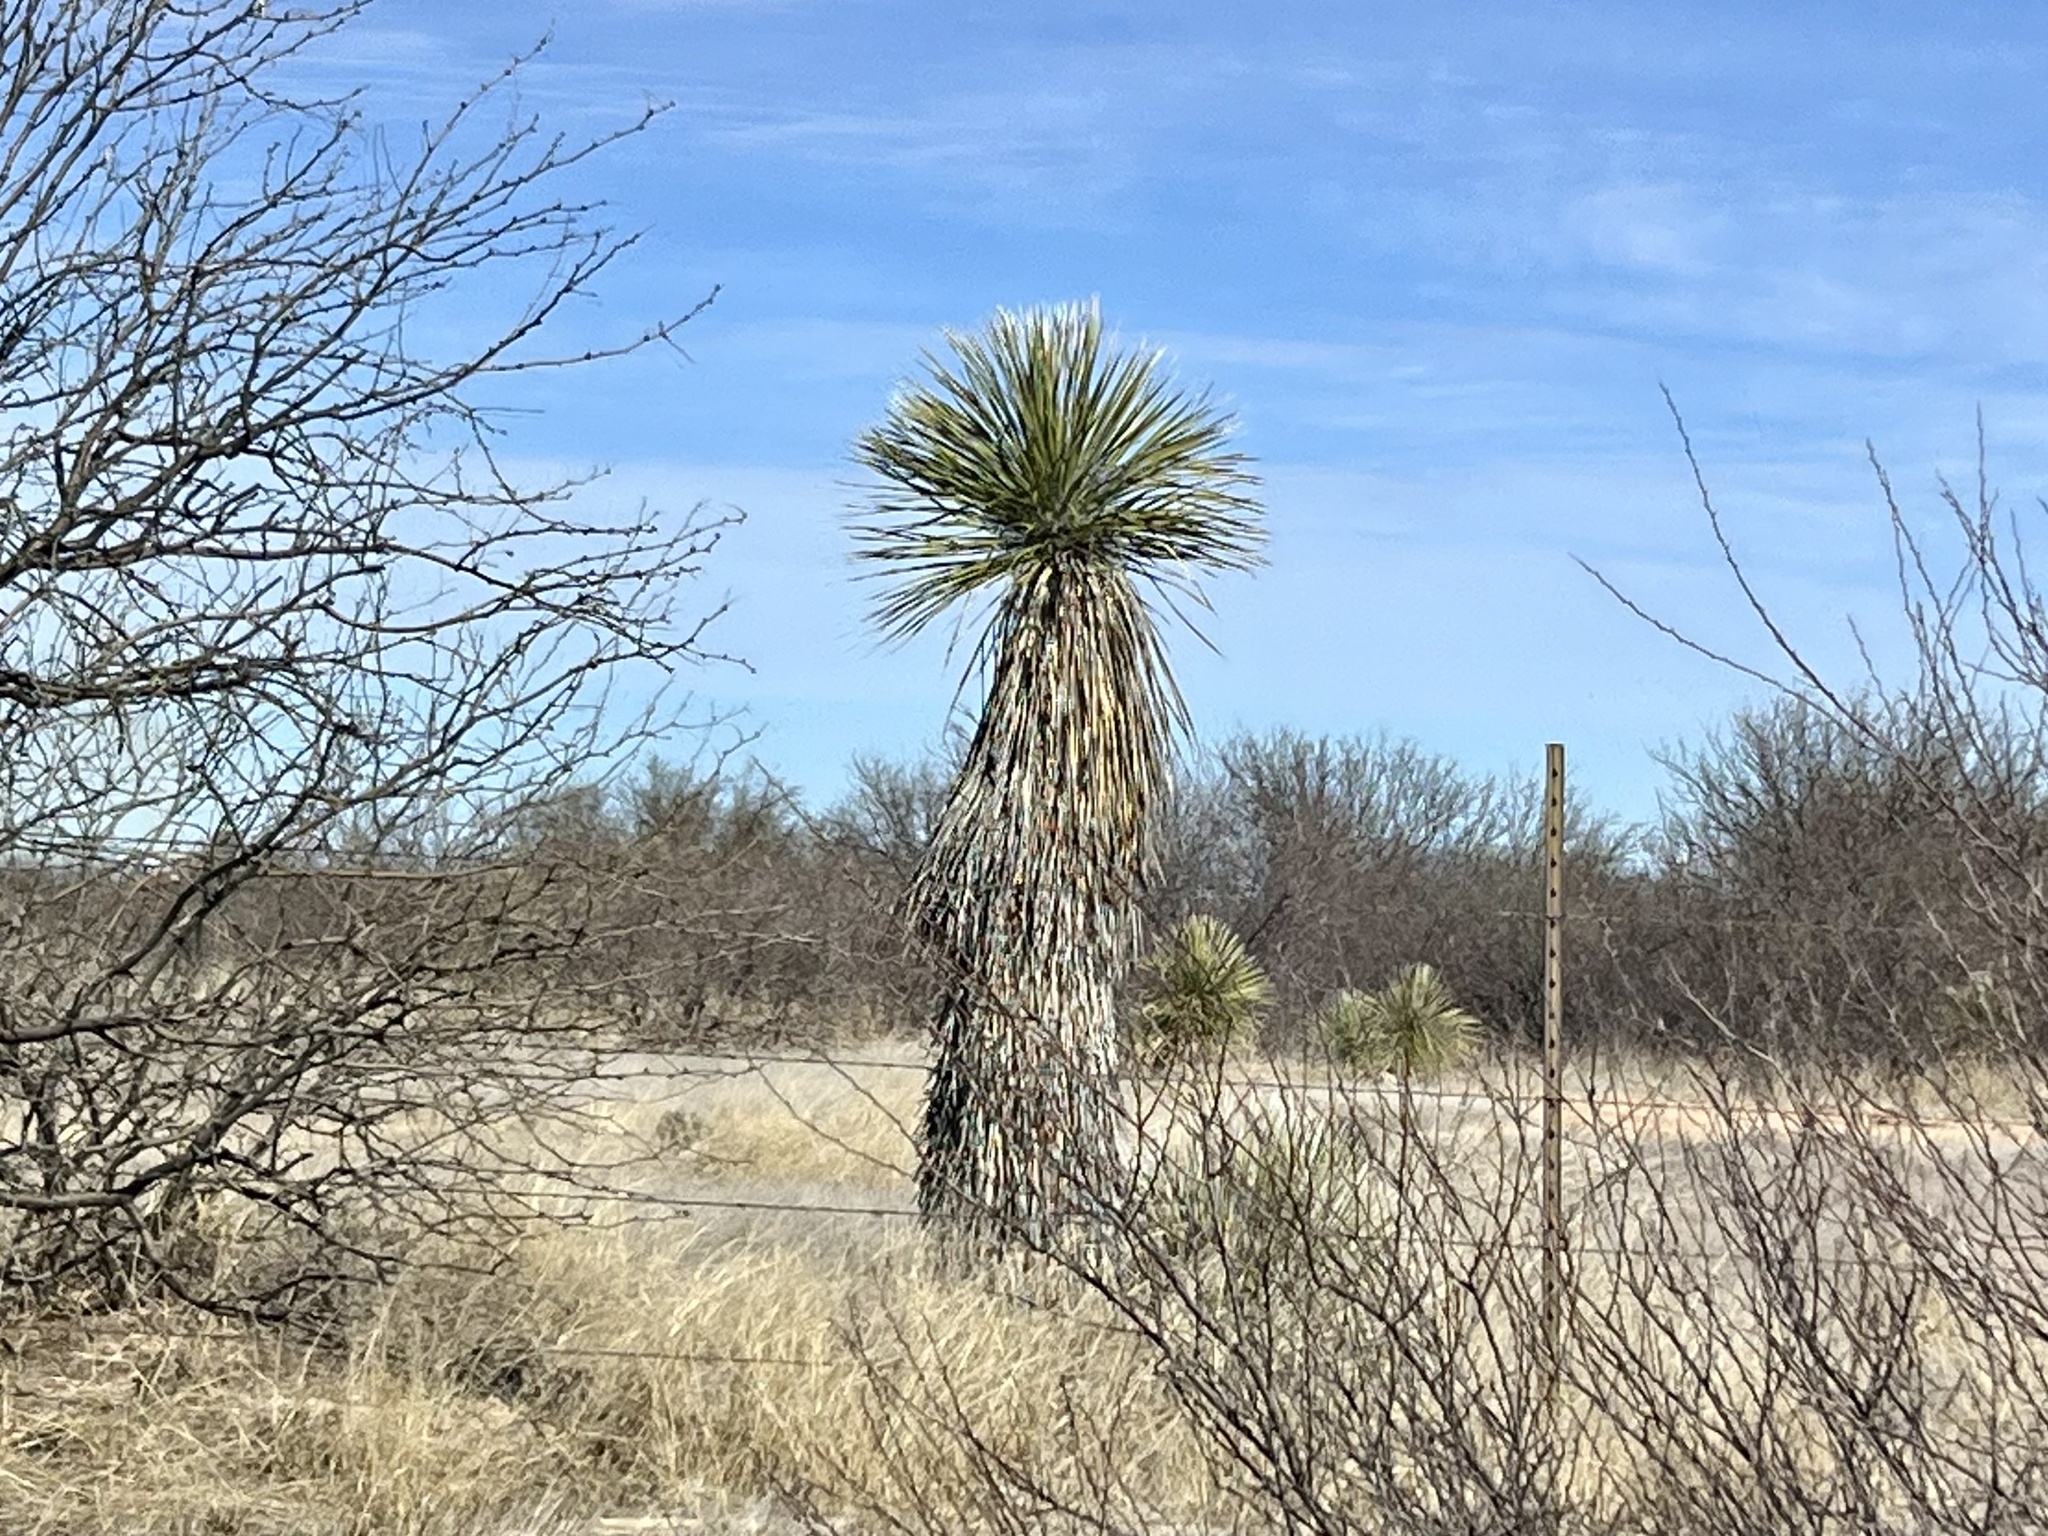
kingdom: Plantae
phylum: Tracheophyta
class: Liliopsida
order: Asparagales
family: Asparagaceae
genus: Yucca
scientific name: Yucca elata
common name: Palmella
